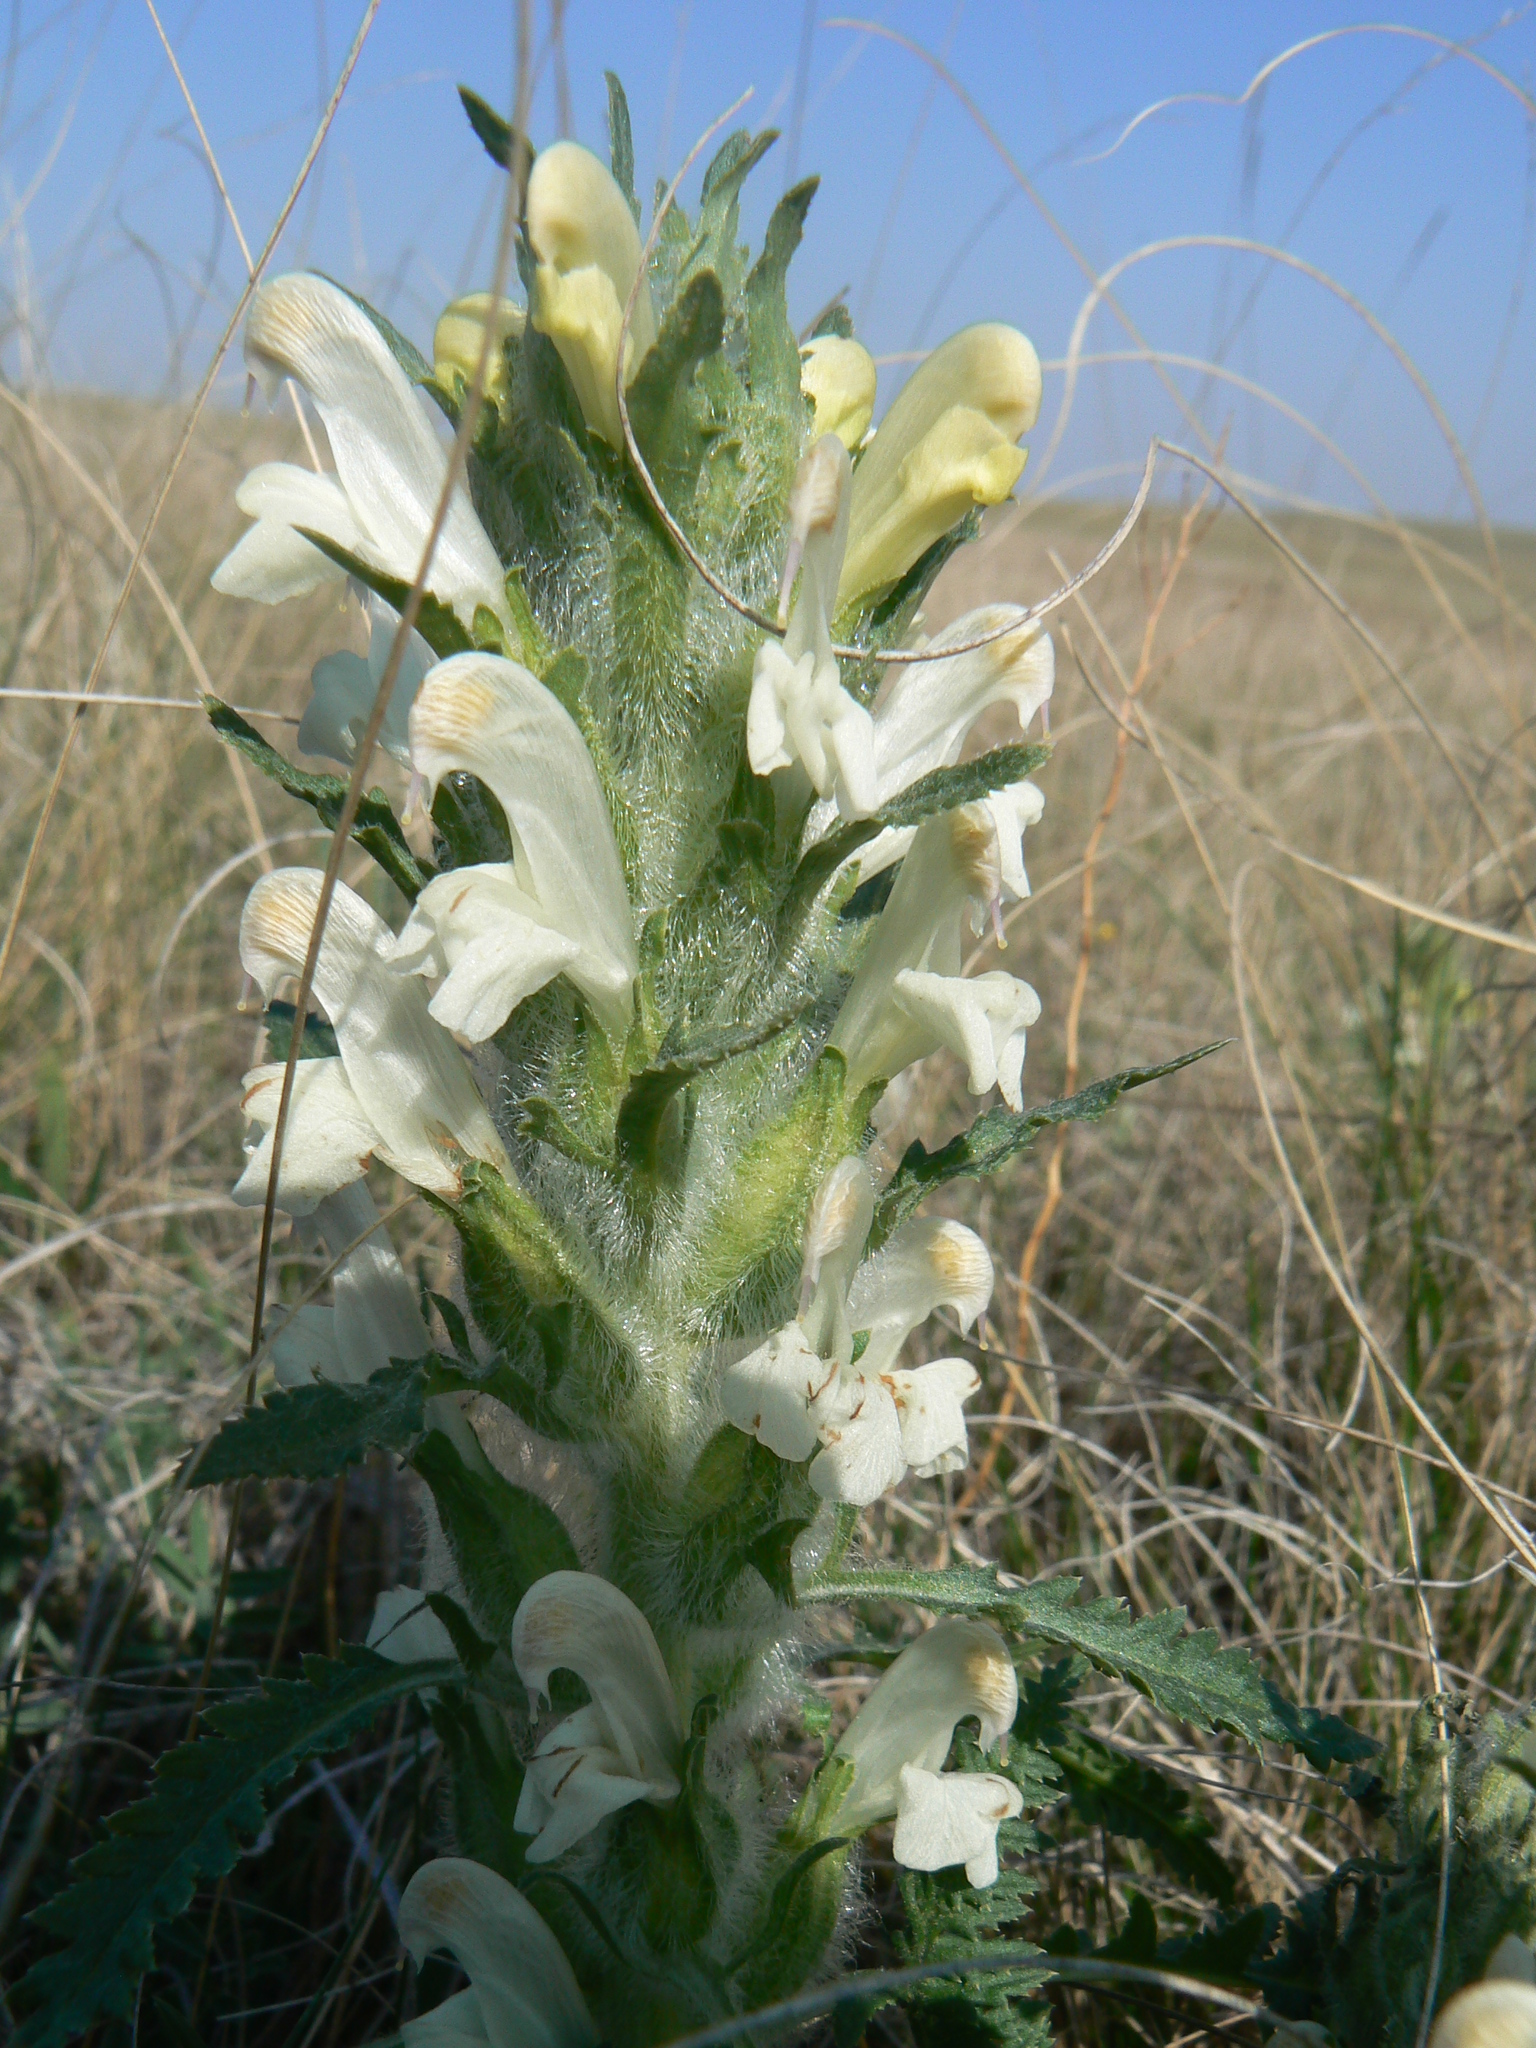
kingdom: Plantae
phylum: Tracheophyta
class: Magnoliopsida
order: Lamiales
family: Orobanchaceae
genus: Pedicularis
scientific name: Pedicularis dasystachys
